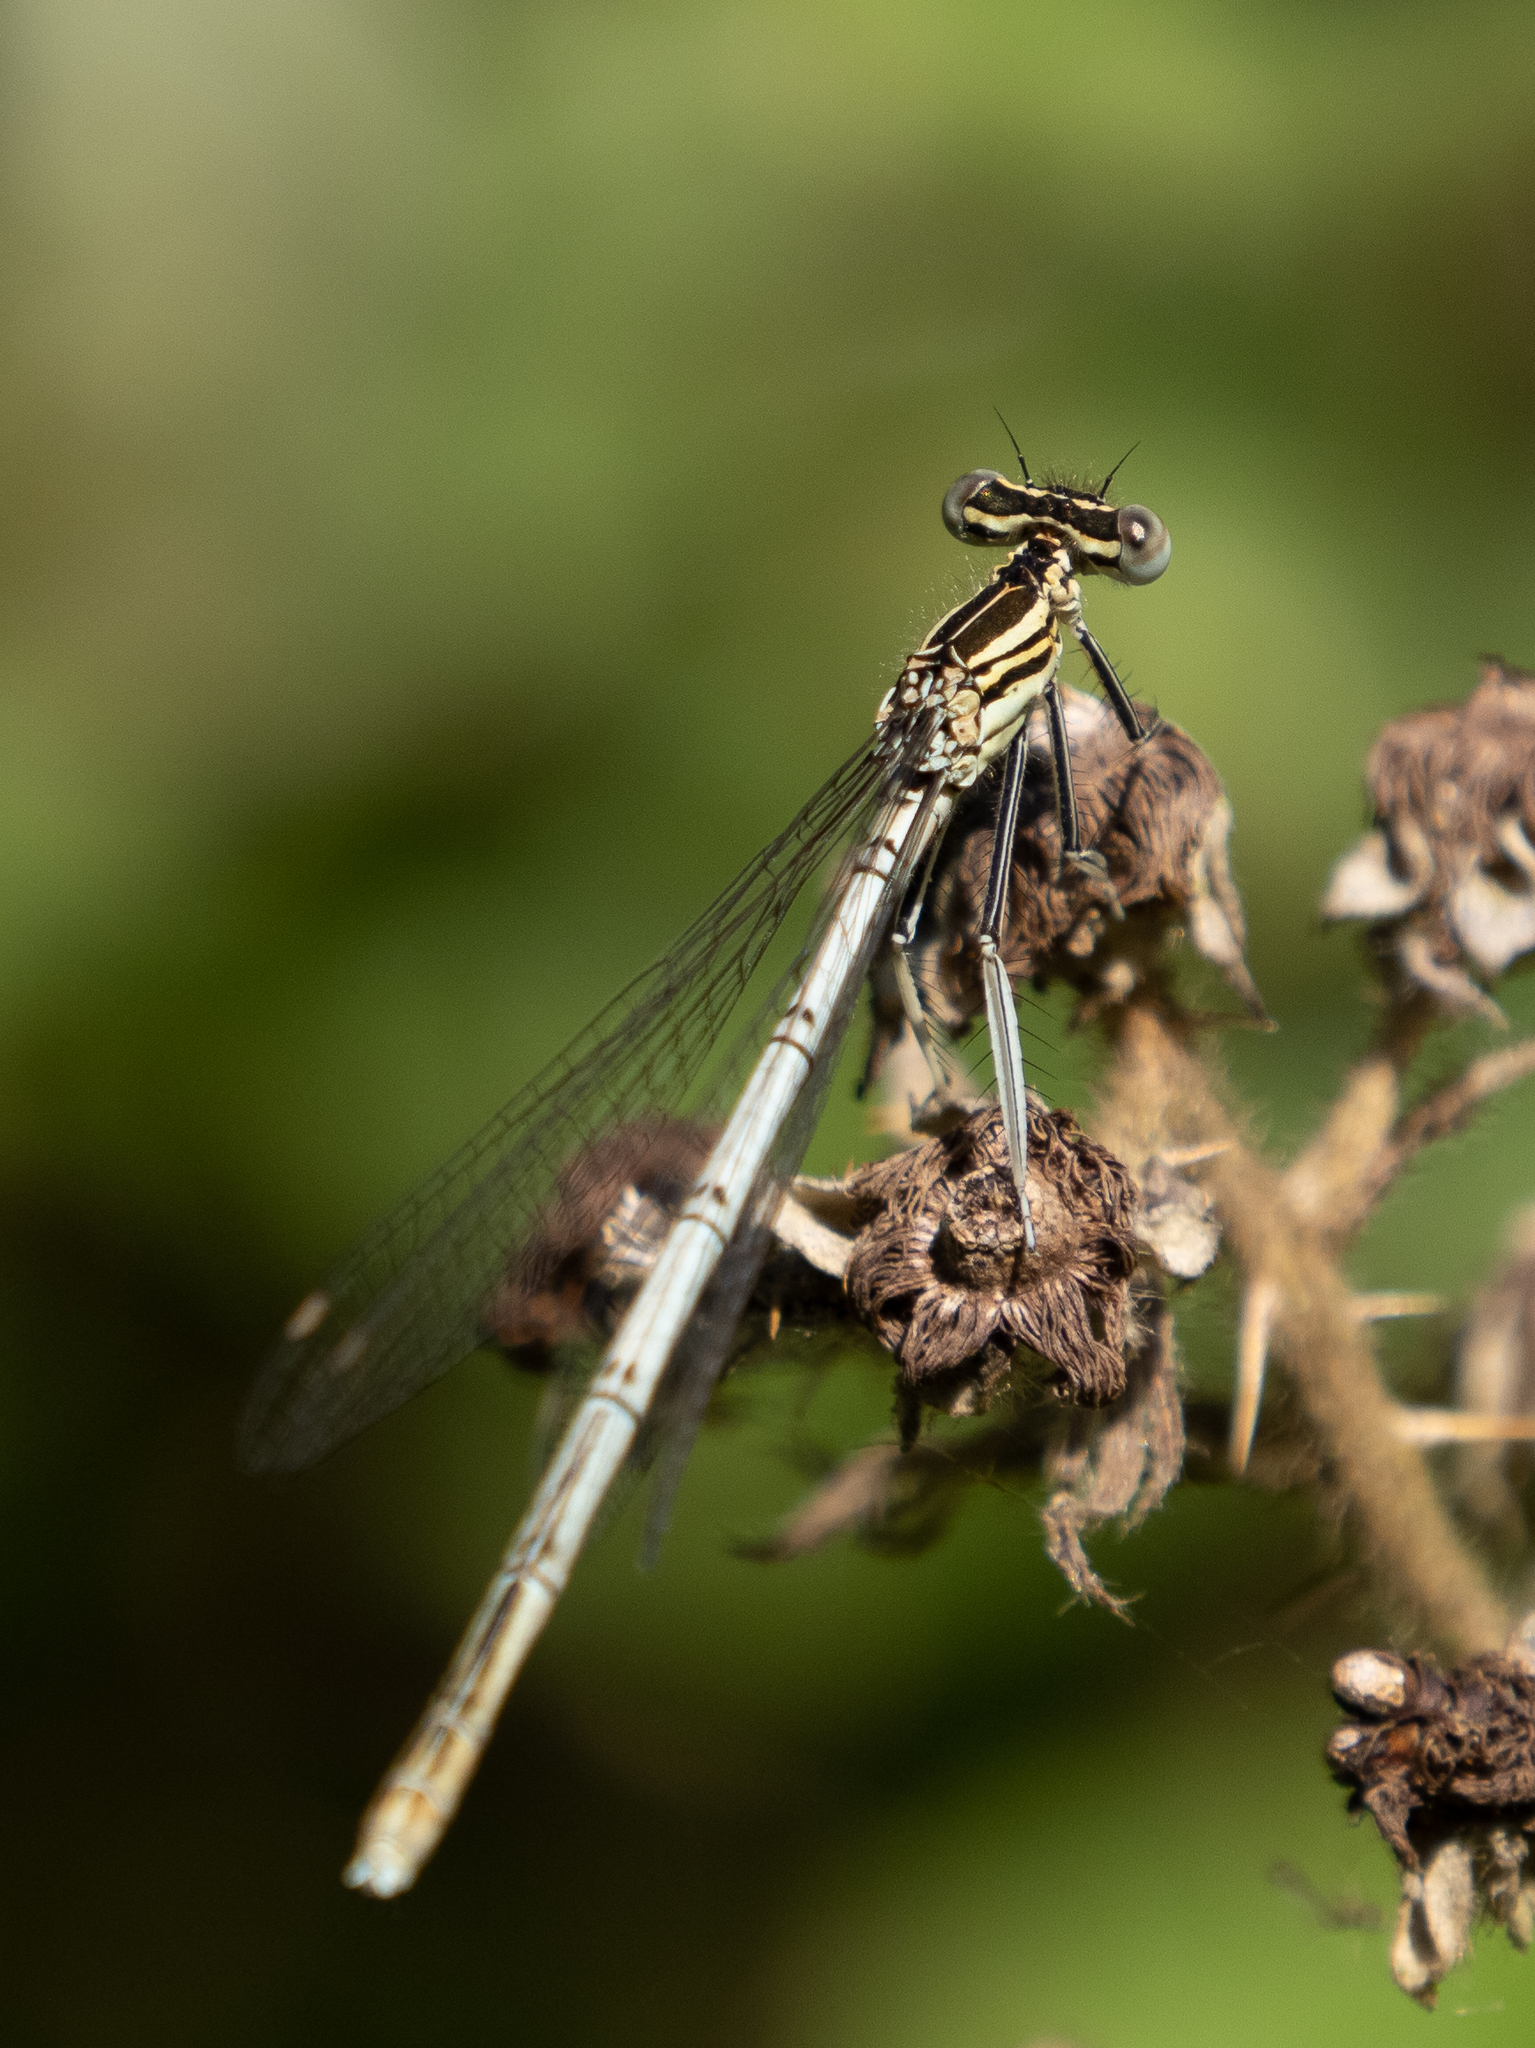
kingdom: Animalia
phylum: Arthropoda
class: Insecta
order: Odonata
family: Platycnemididae
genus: Platycnemis
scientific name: Platycnemis pennipes
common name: White-legged damselfly
